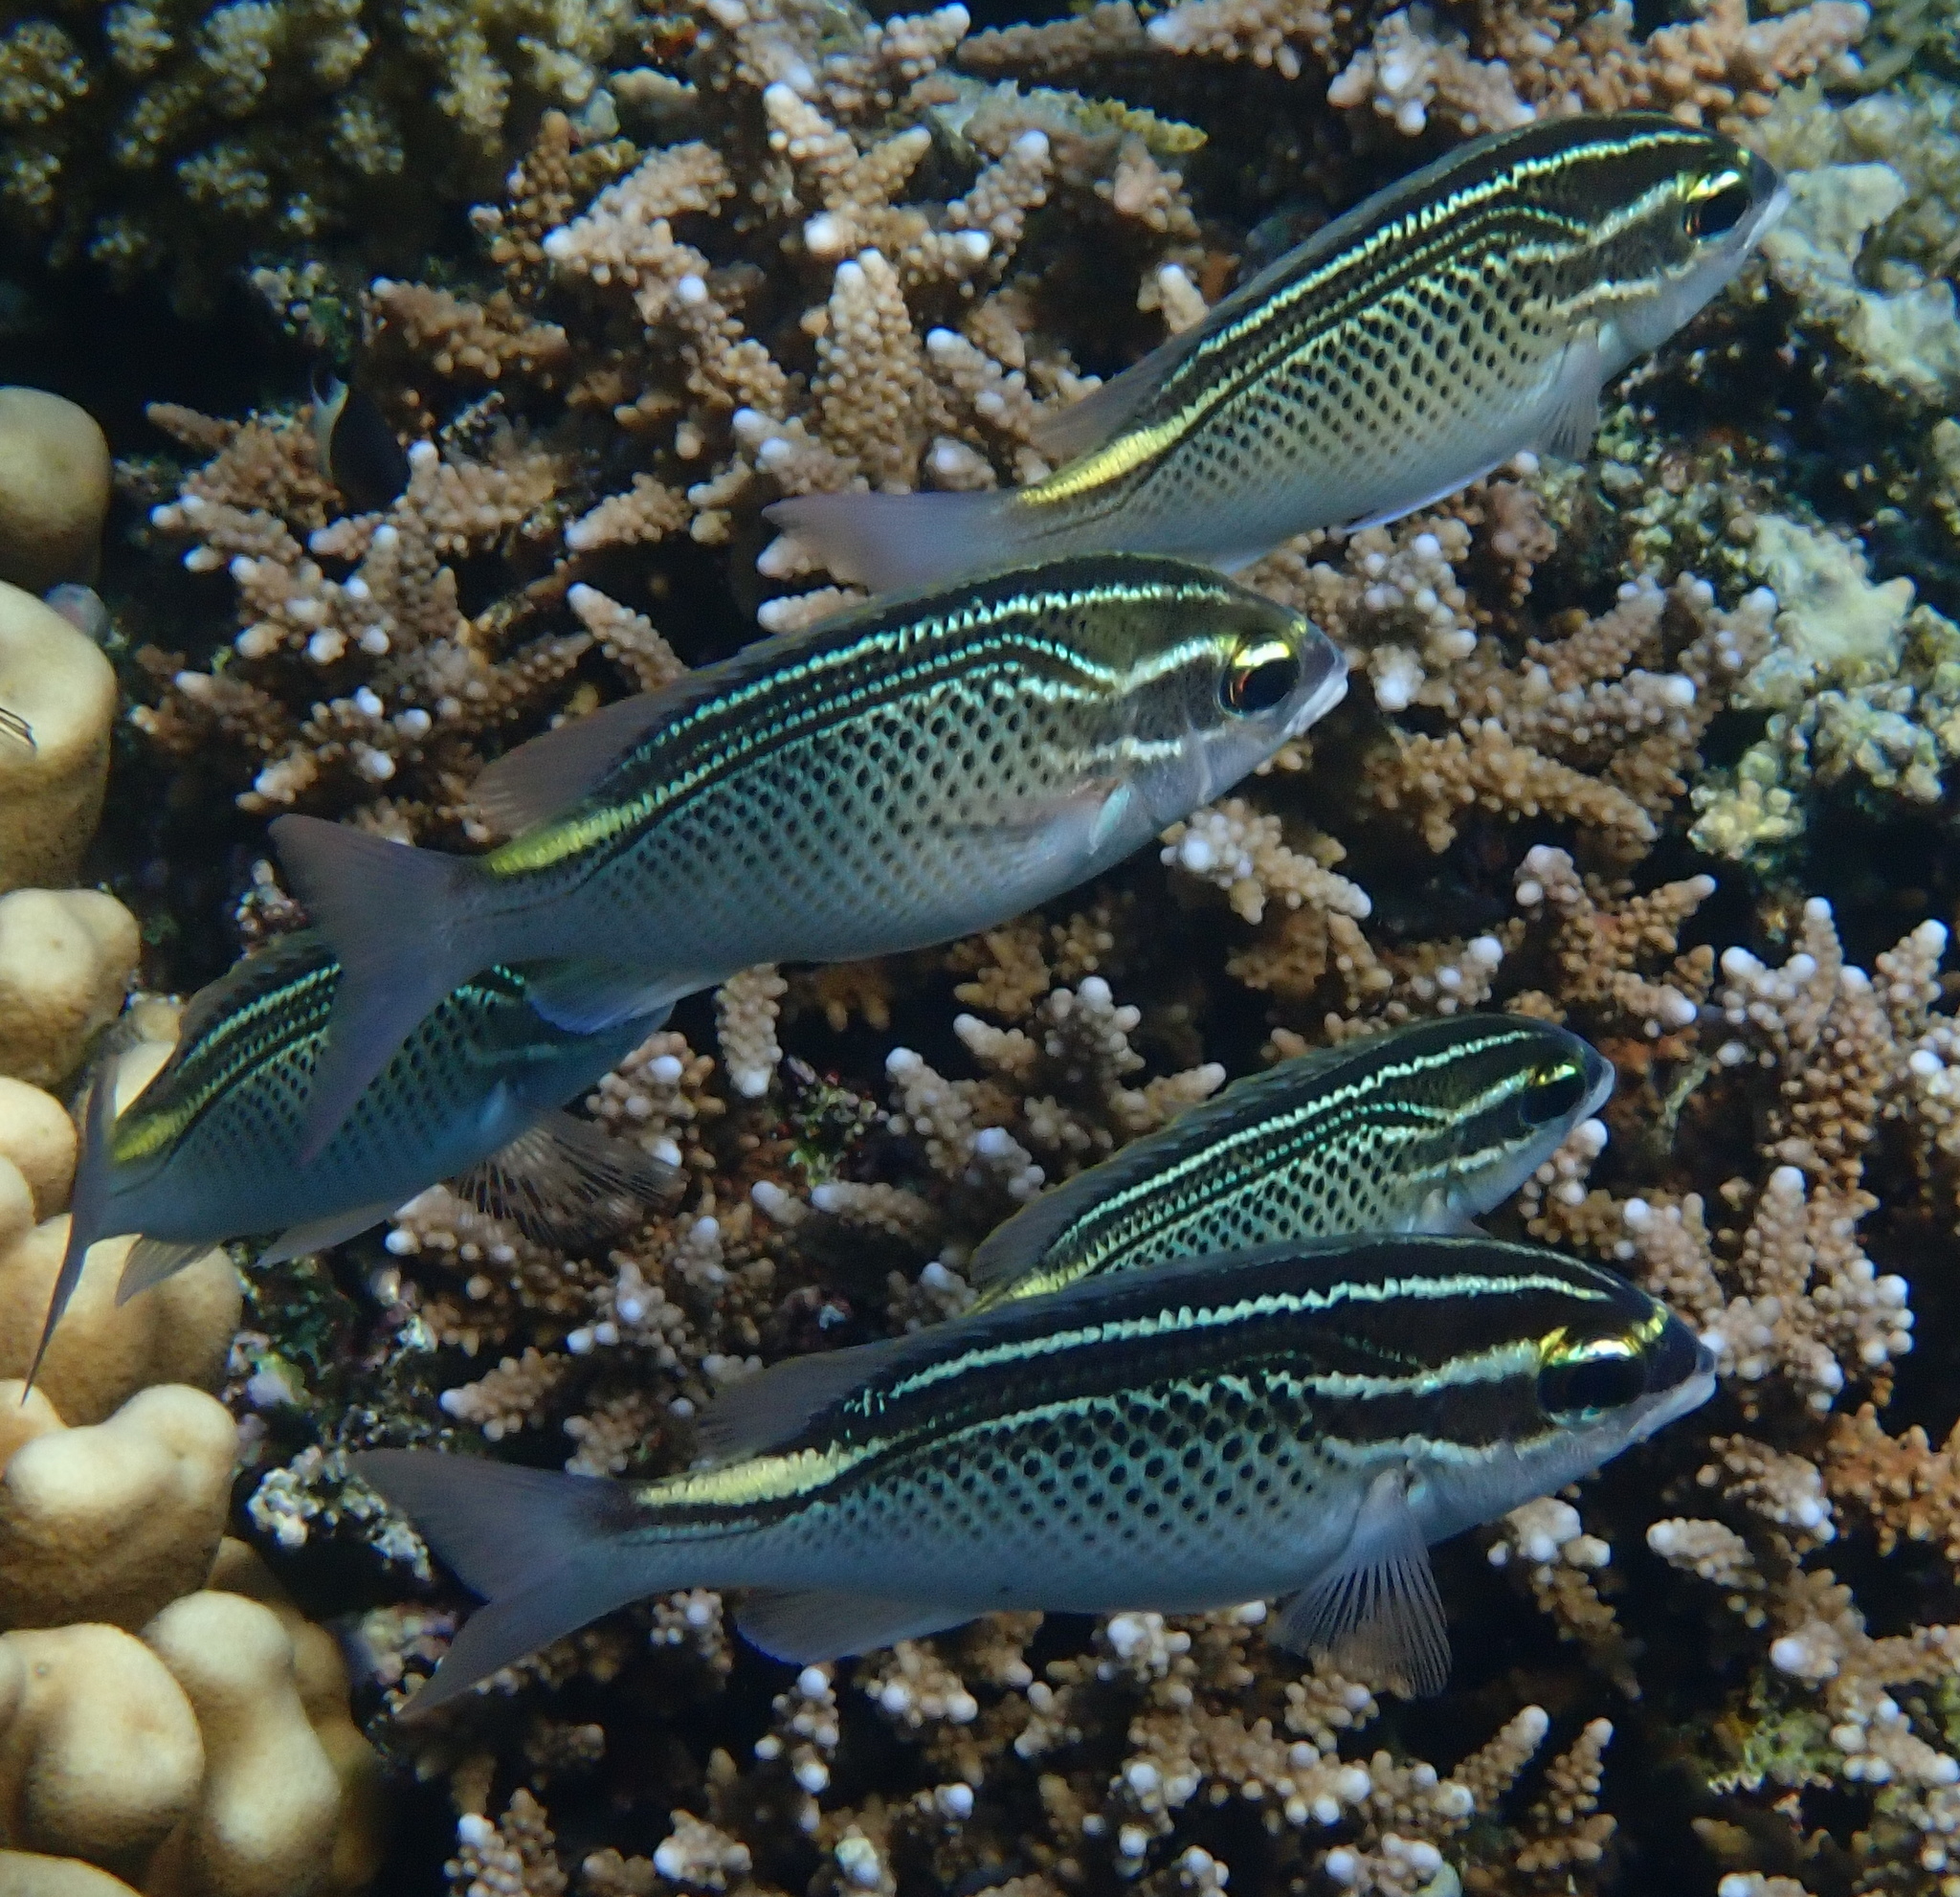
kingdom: Animalia
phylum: Chordata
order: Perciformes
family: Nemipteridae
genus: Scolopsis
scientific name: Scolopsis ghanam
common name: Arabian monocle bream
